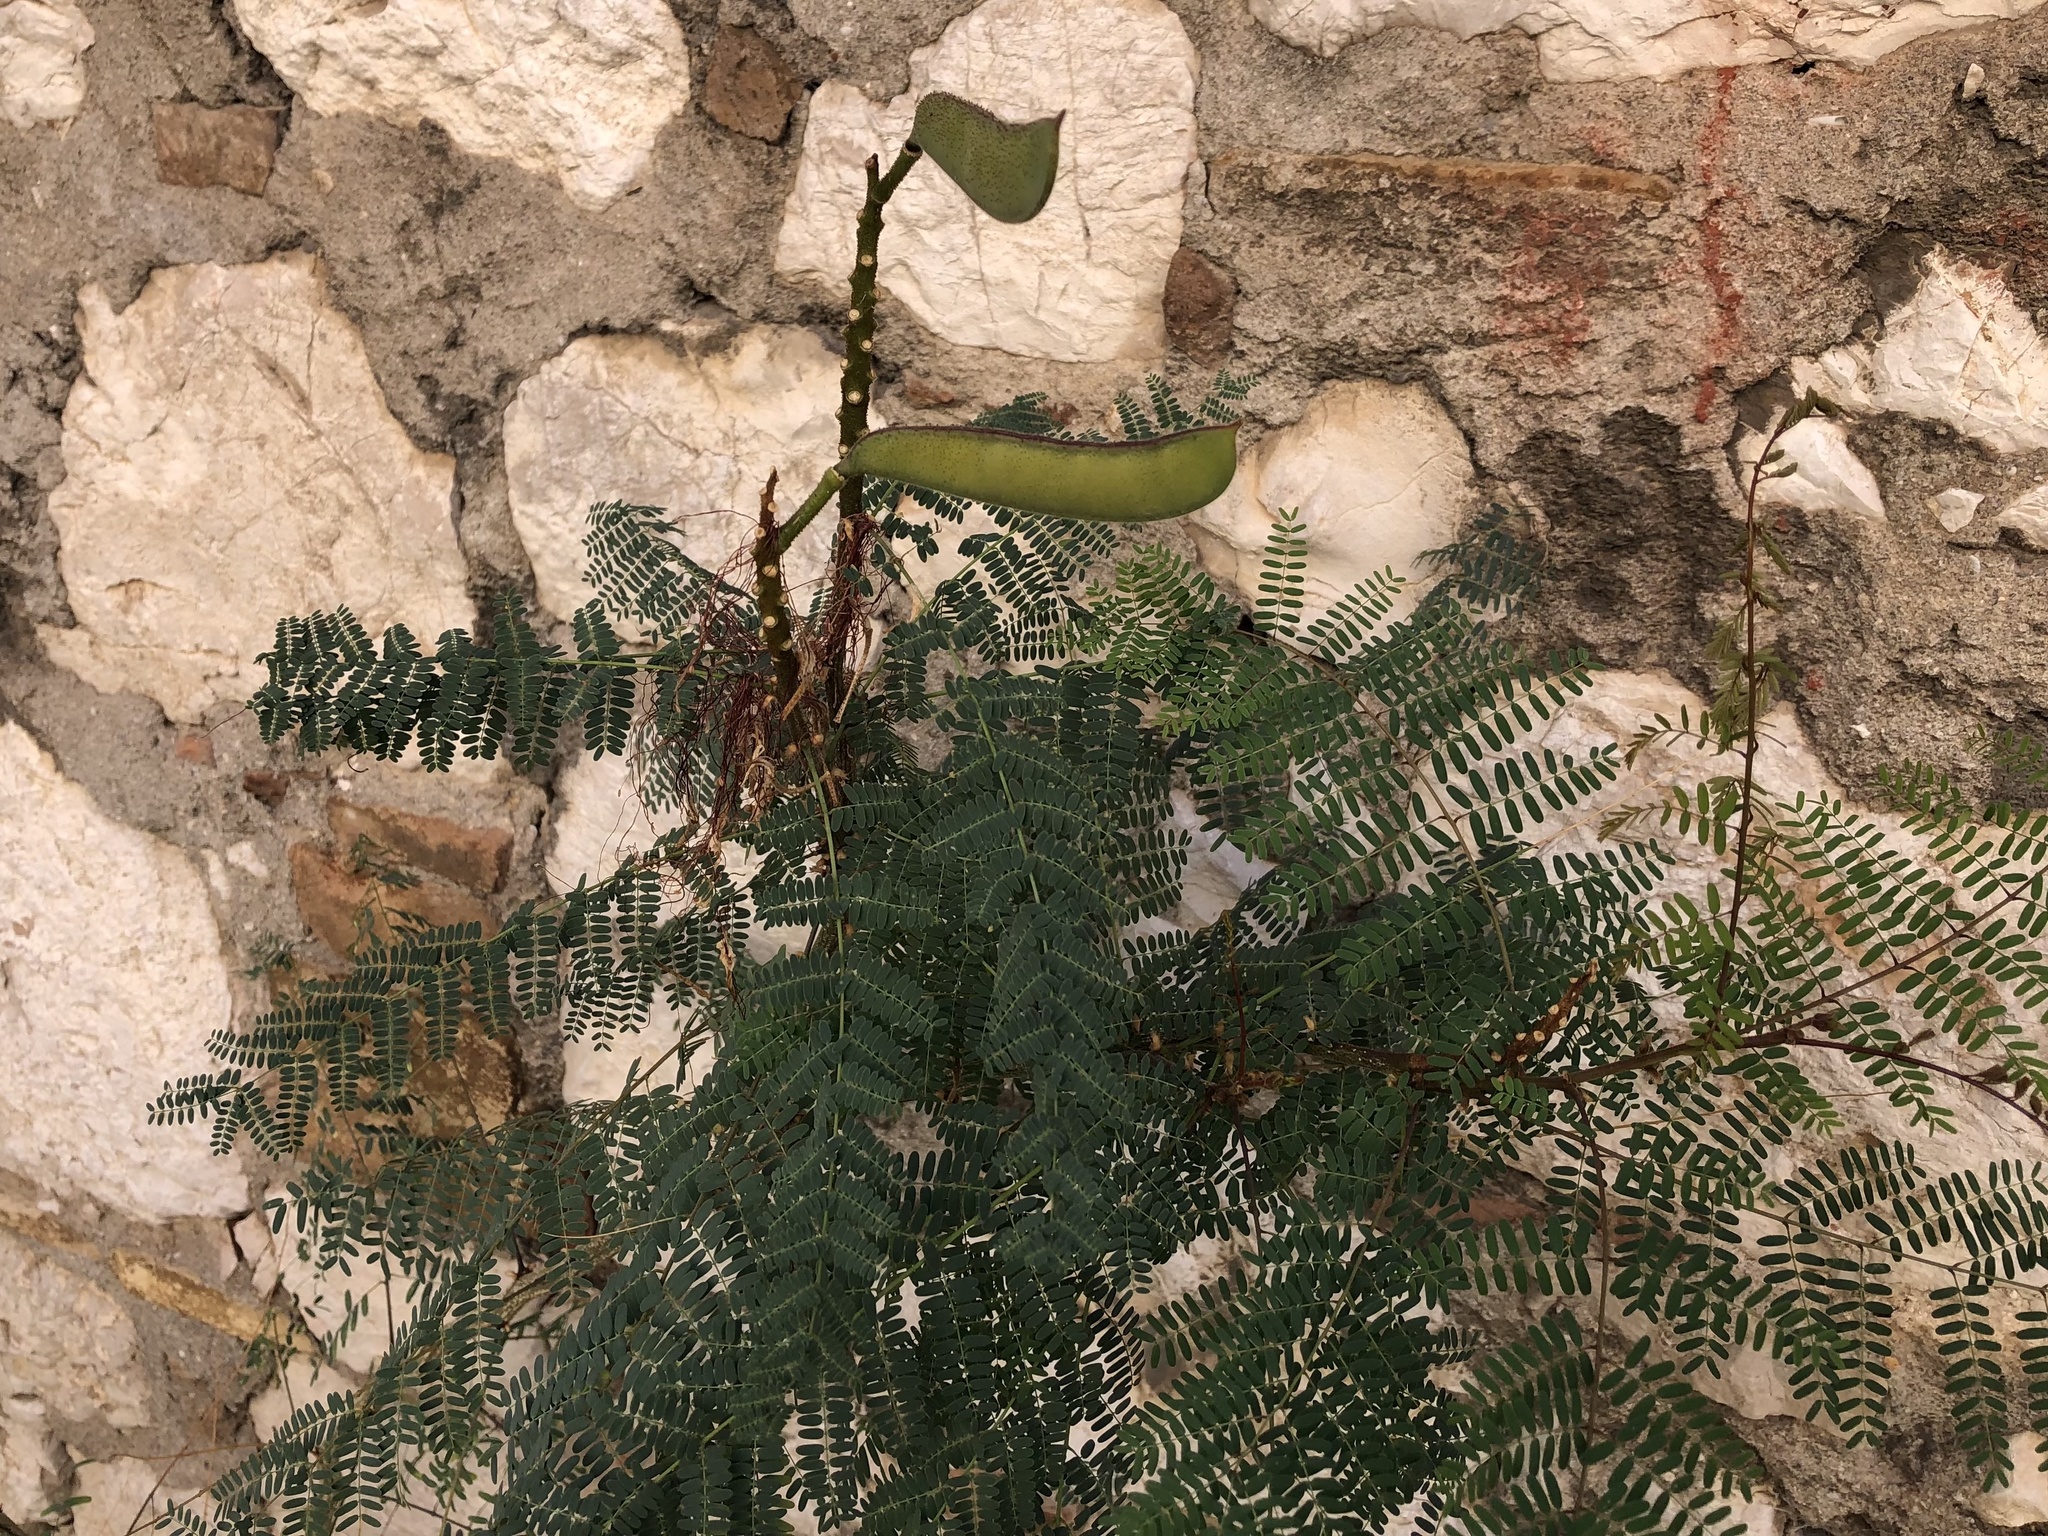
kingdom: Plantae
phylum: Tracheophyta
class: Magnoliopsida
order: Fabales
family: Fabaceae
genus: Erythrostemon
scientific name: Erythrostemon gilliesii
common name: Bird-of-paradise shrub
